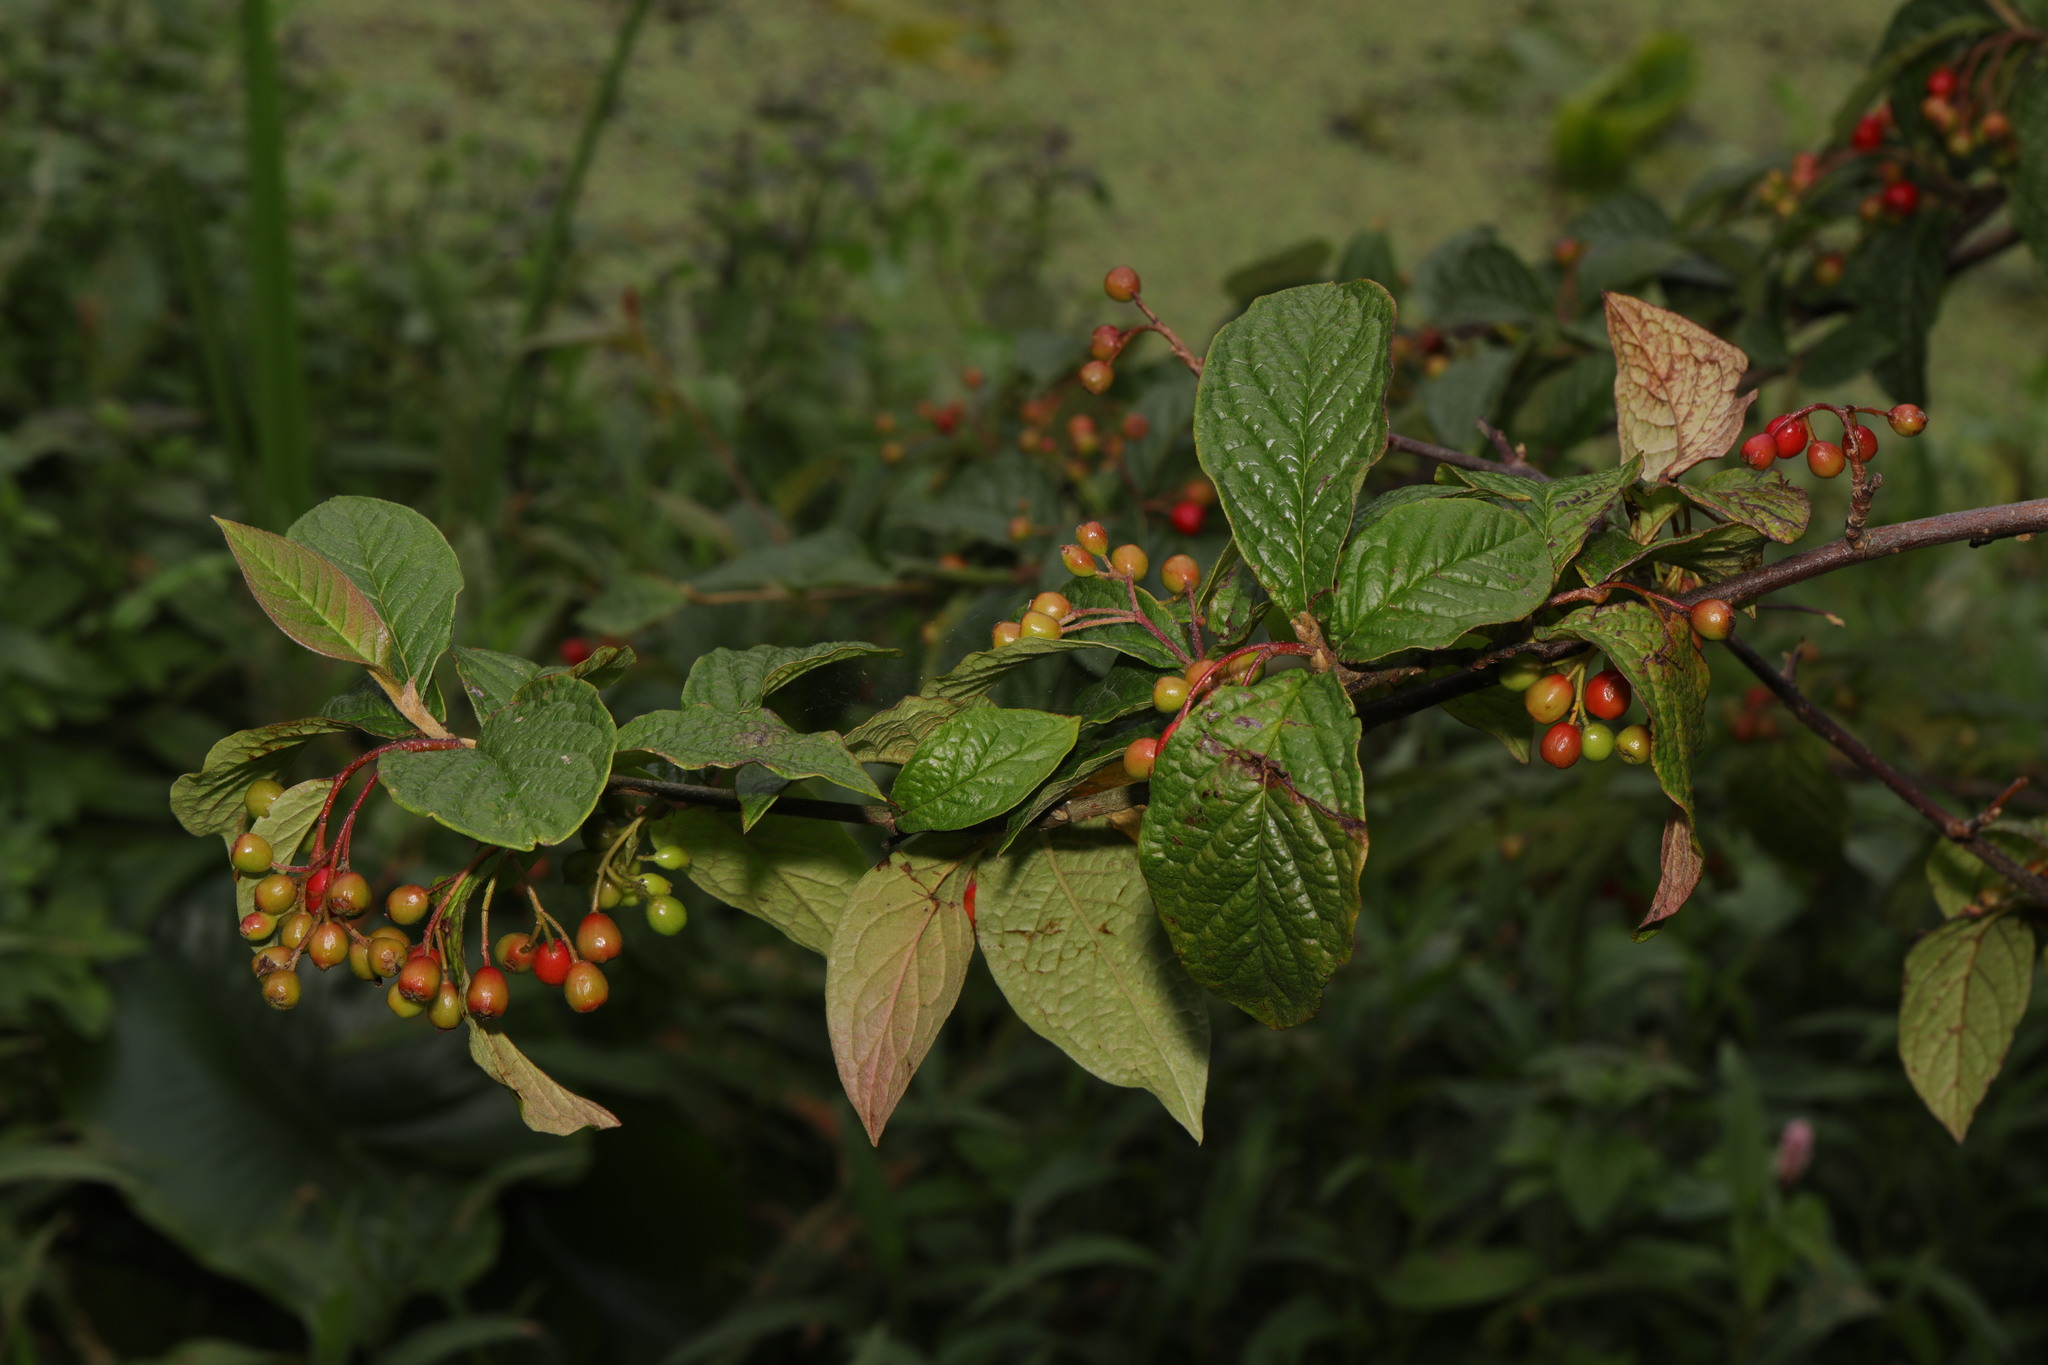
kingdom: Plantae
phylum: Tracheophyta
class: Magnoliopsida
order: Rosales
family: Rosaceae
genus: Cotoneaster
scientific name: Cotoneaster bullatus
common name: Hollyberry cotoneaster
